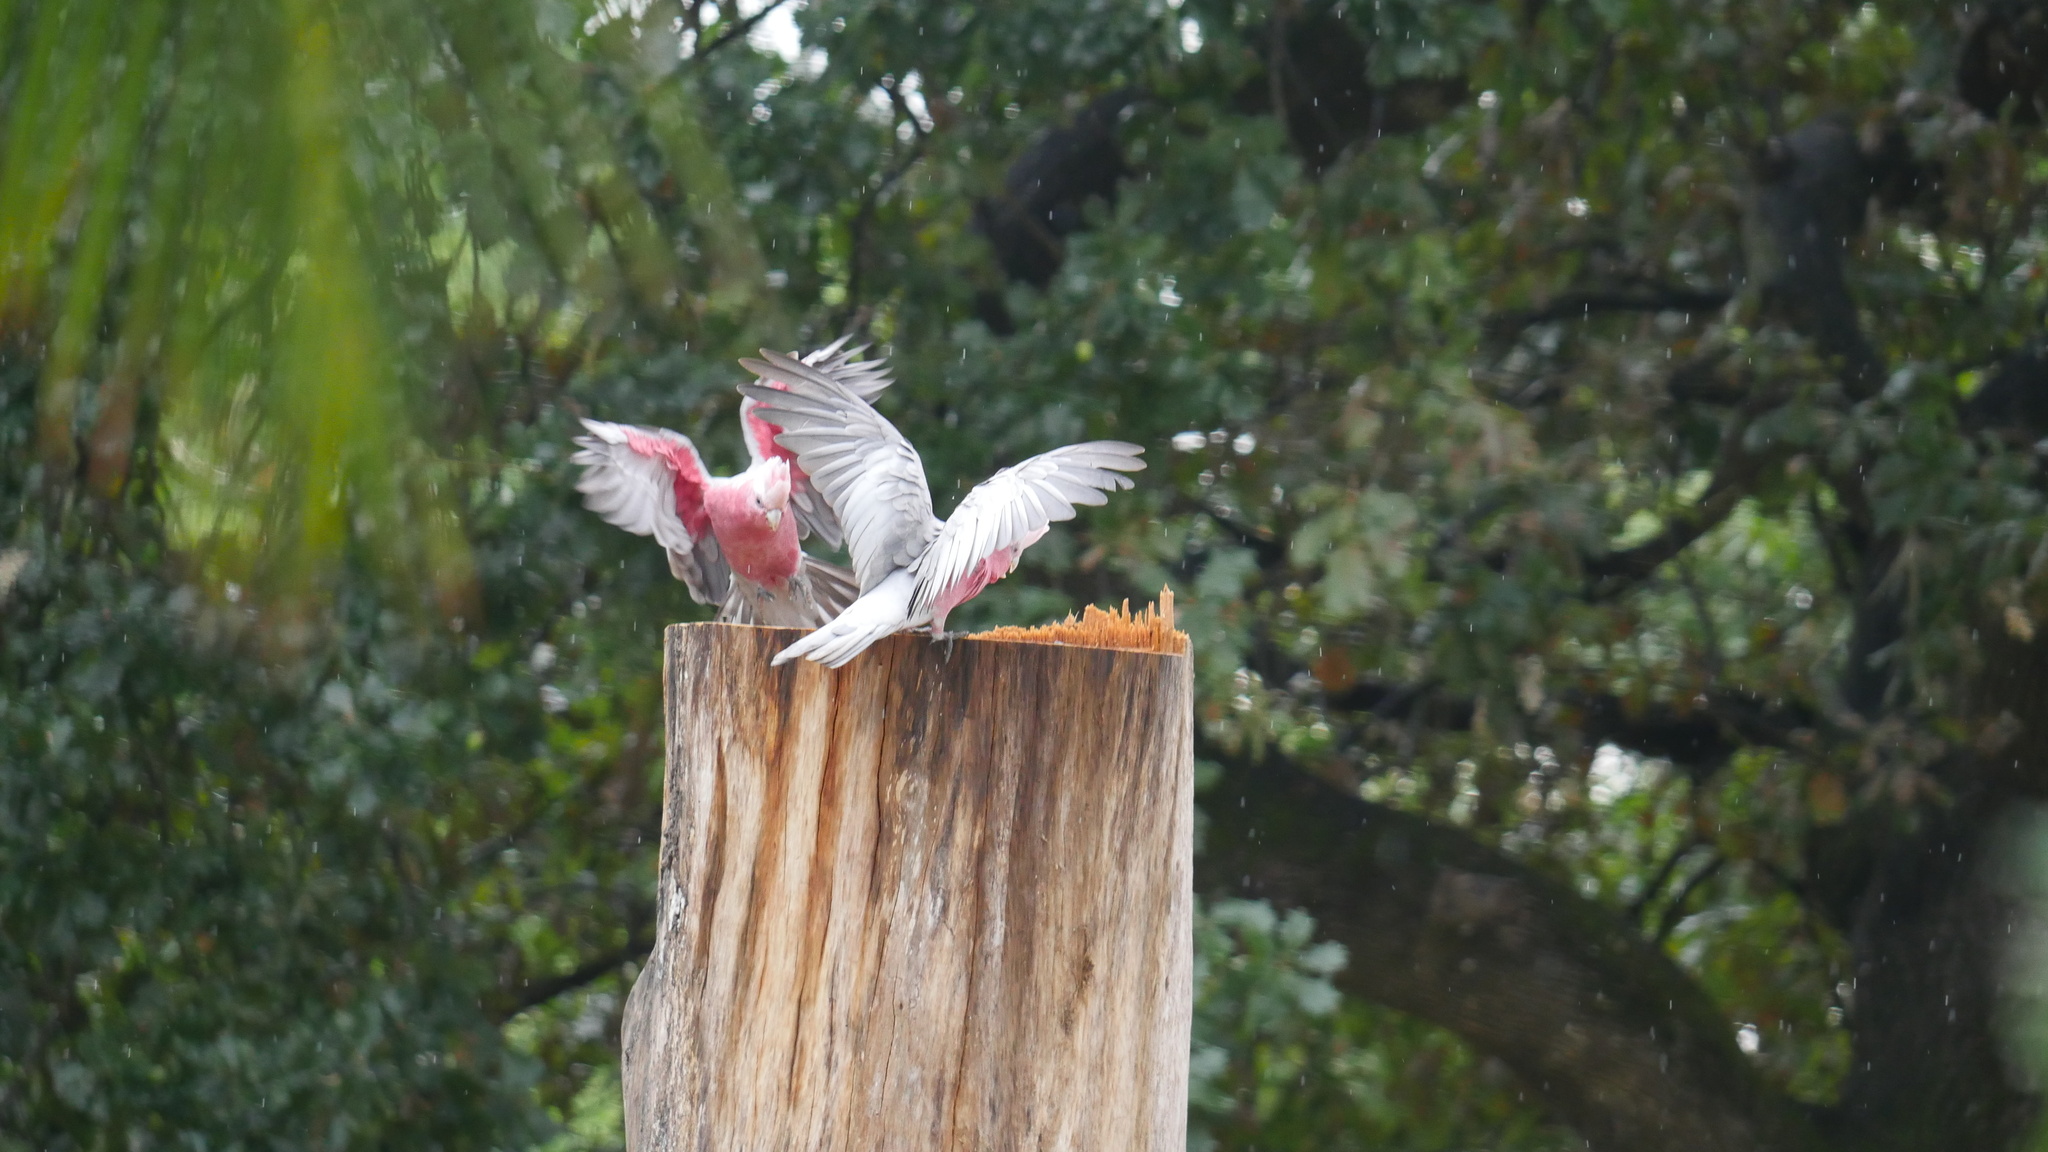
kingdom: Animalia
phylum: Chordata
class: Aves
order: Psittaciformes
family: Psittacidae
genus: Eolophus
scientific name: Eolophus roseicapilla
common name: Galah
